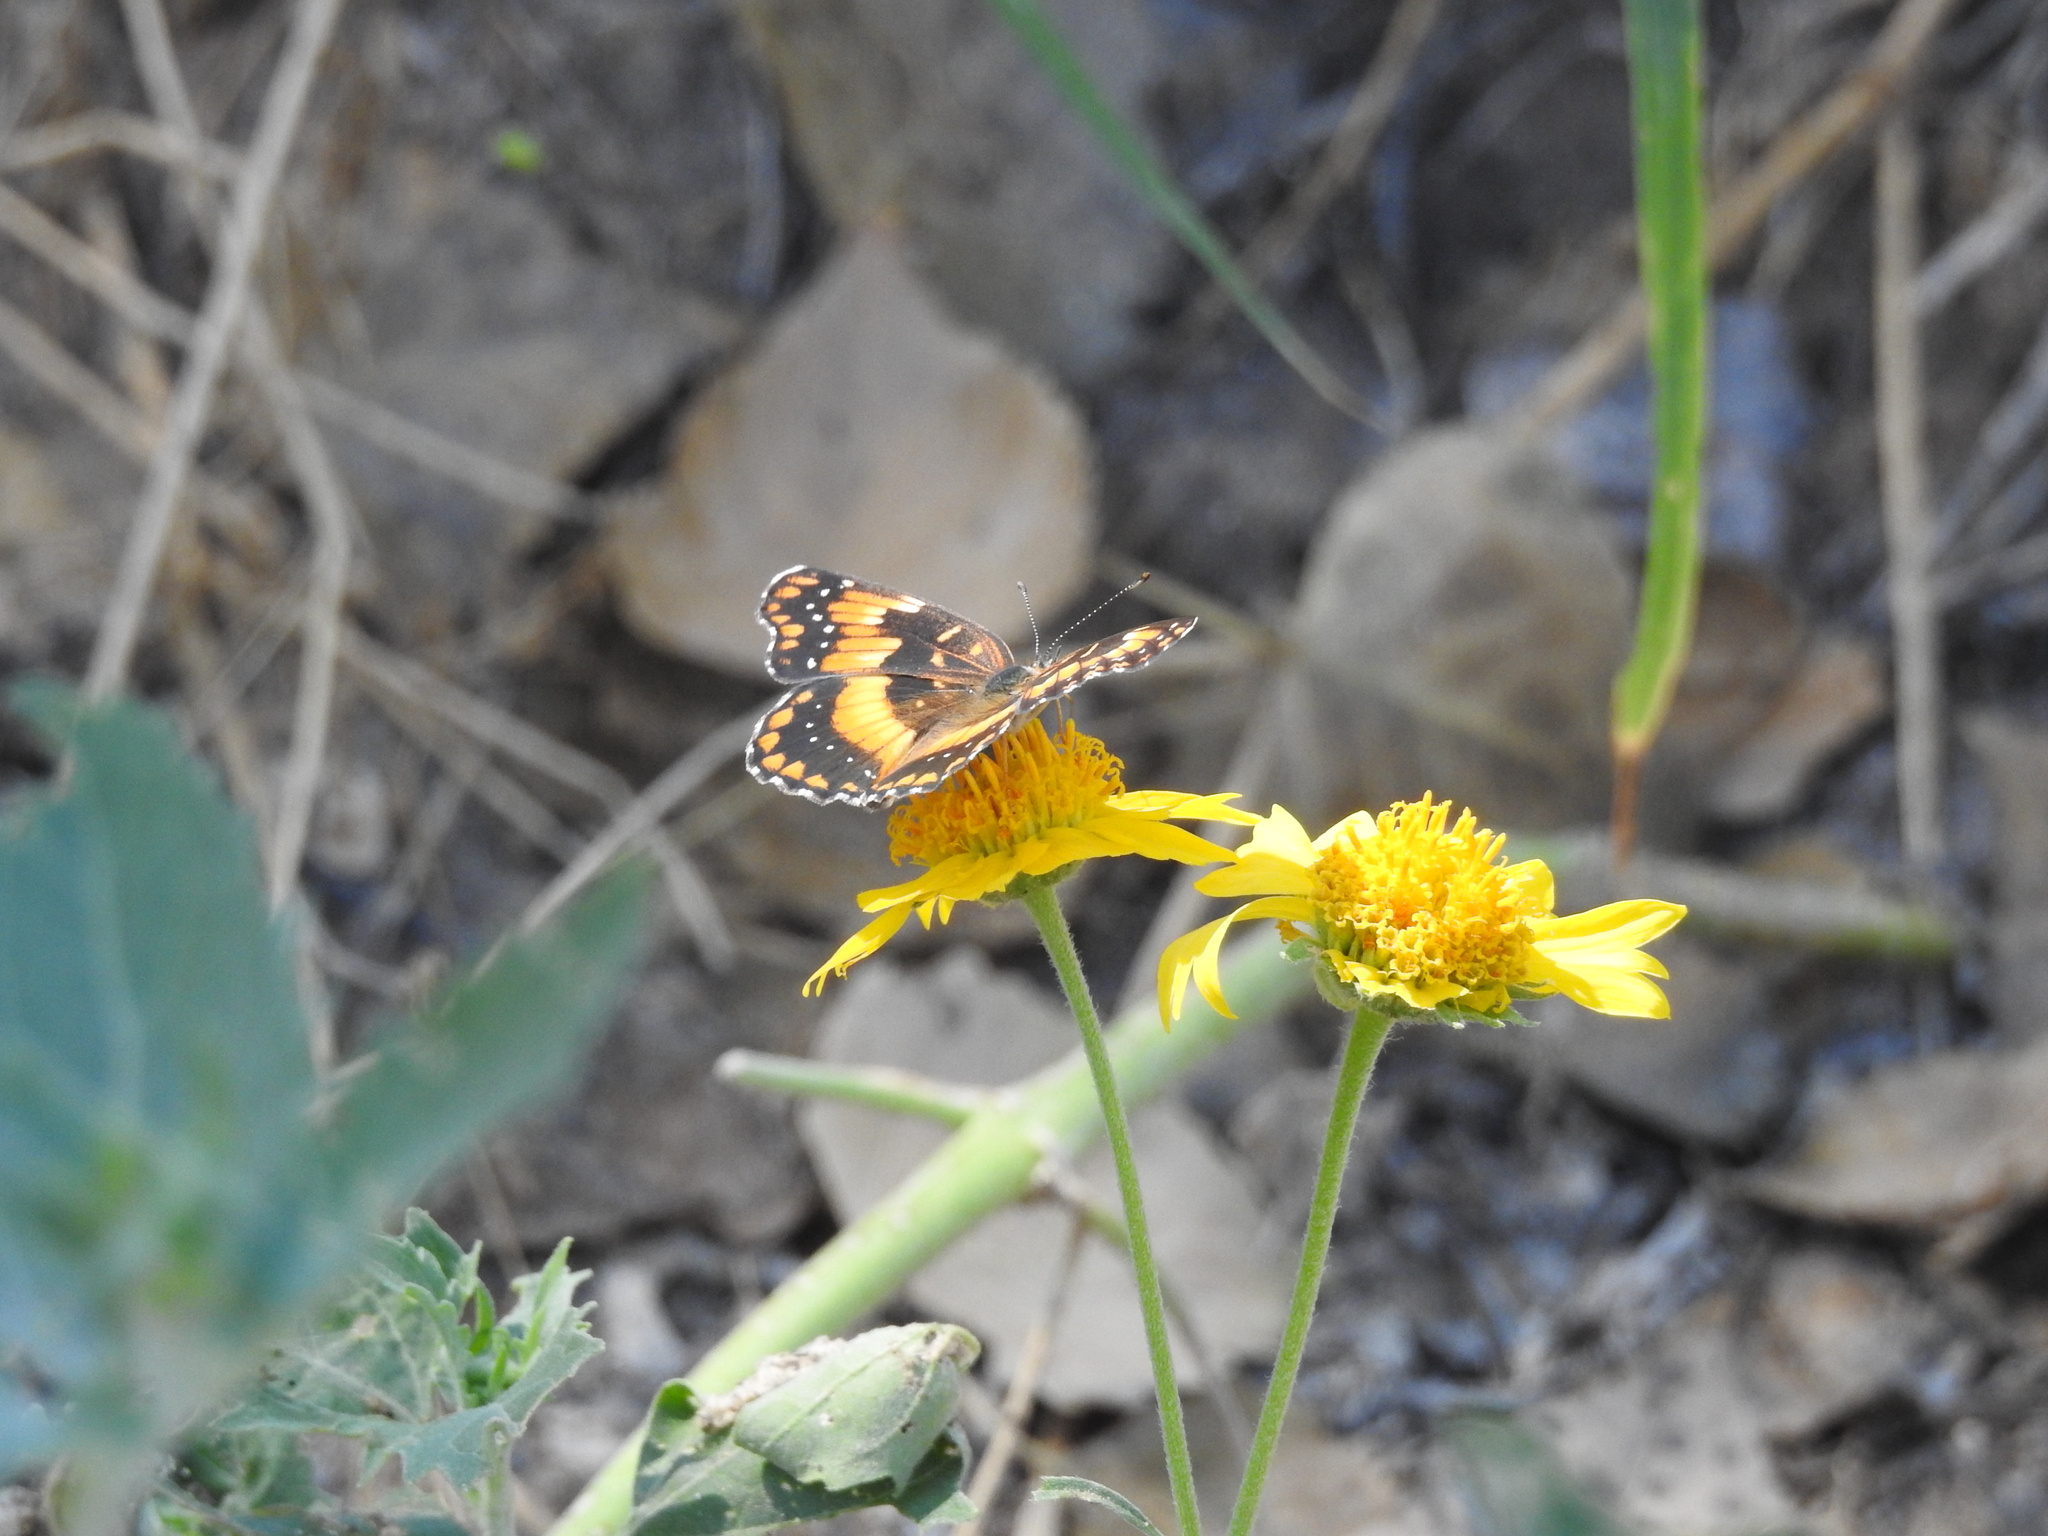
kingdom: Animalia
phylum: Arthropoda
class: Insecta
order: Lepidoptera
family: Nymphalidae
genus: Chlosyne
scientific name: Chlosyne californica
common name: California patch
